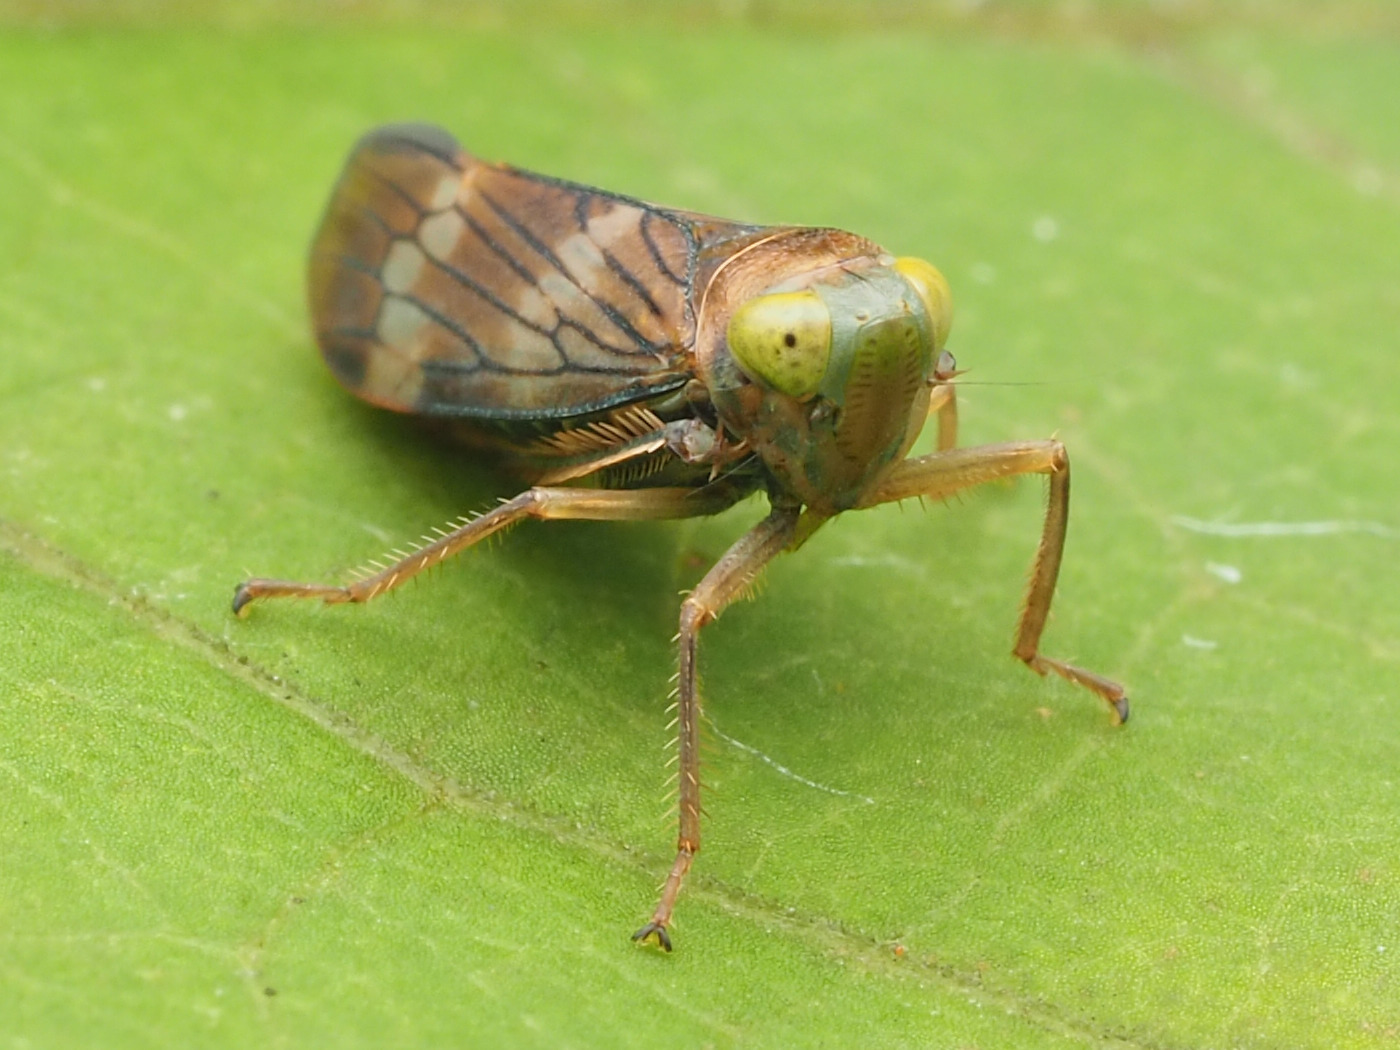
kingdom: Animalia
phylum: Arthropoda
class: Insecta
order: Hemiptera
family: Cicadellidae
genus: Jikradia
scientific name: Jikradia olitoria
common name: Coppery leafhopper
